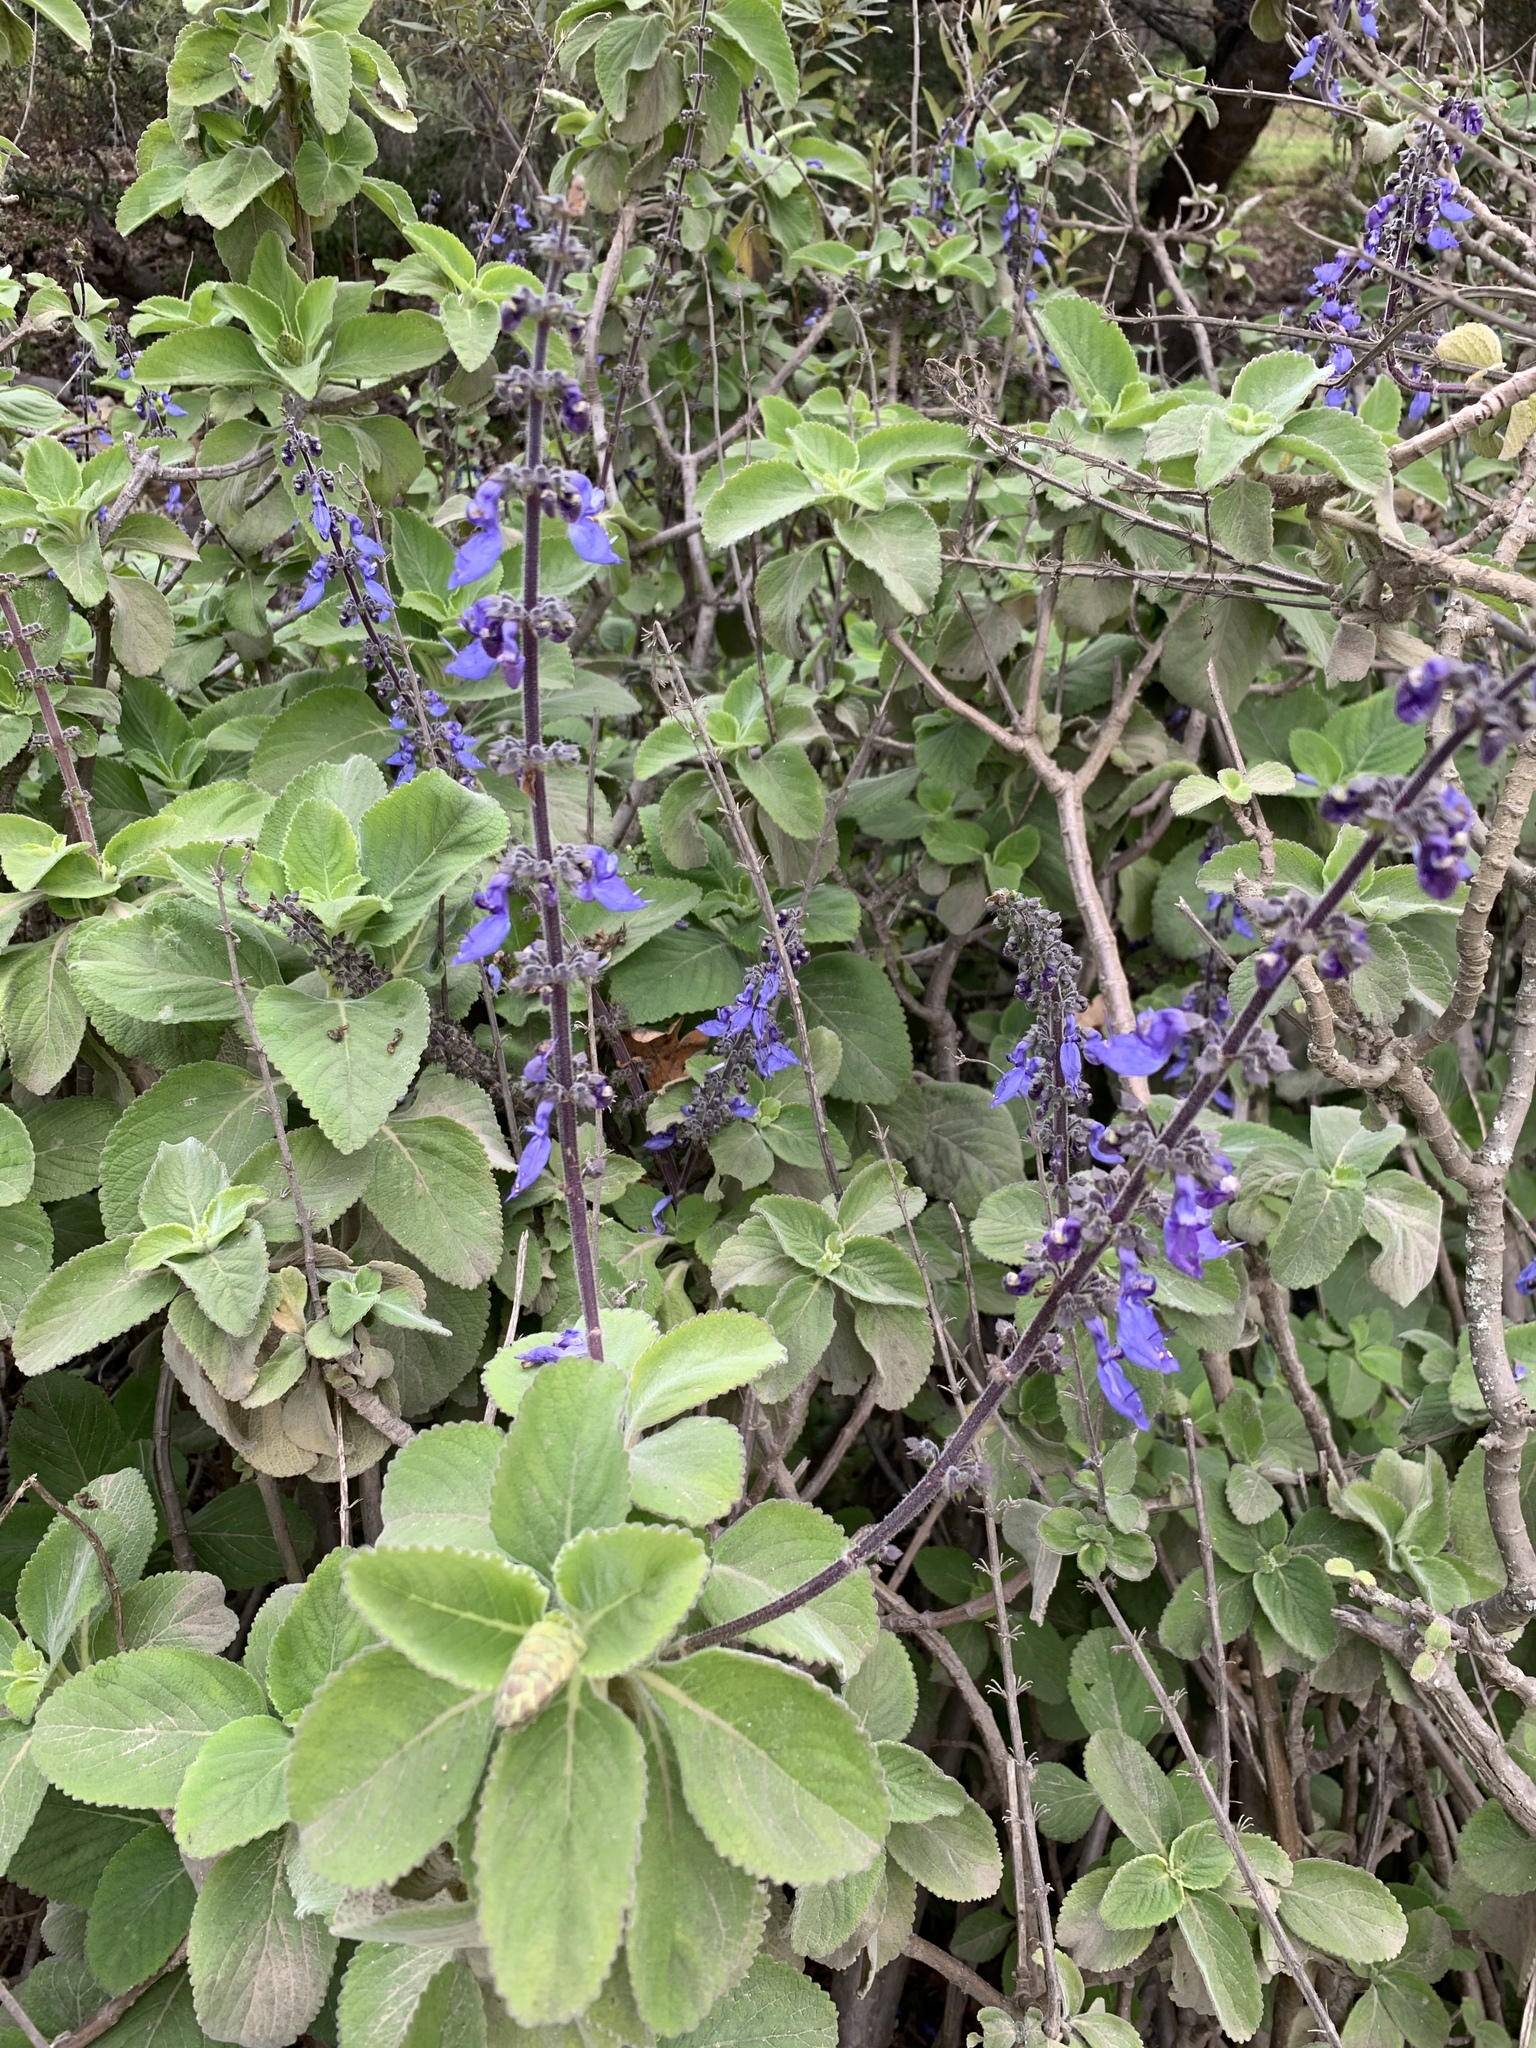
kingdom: Plantae
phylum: Tracheophyta
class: Magnoliopsida
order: Lamiales
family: Lamiaceae
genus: Coleus
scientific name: Coleus barbatus
